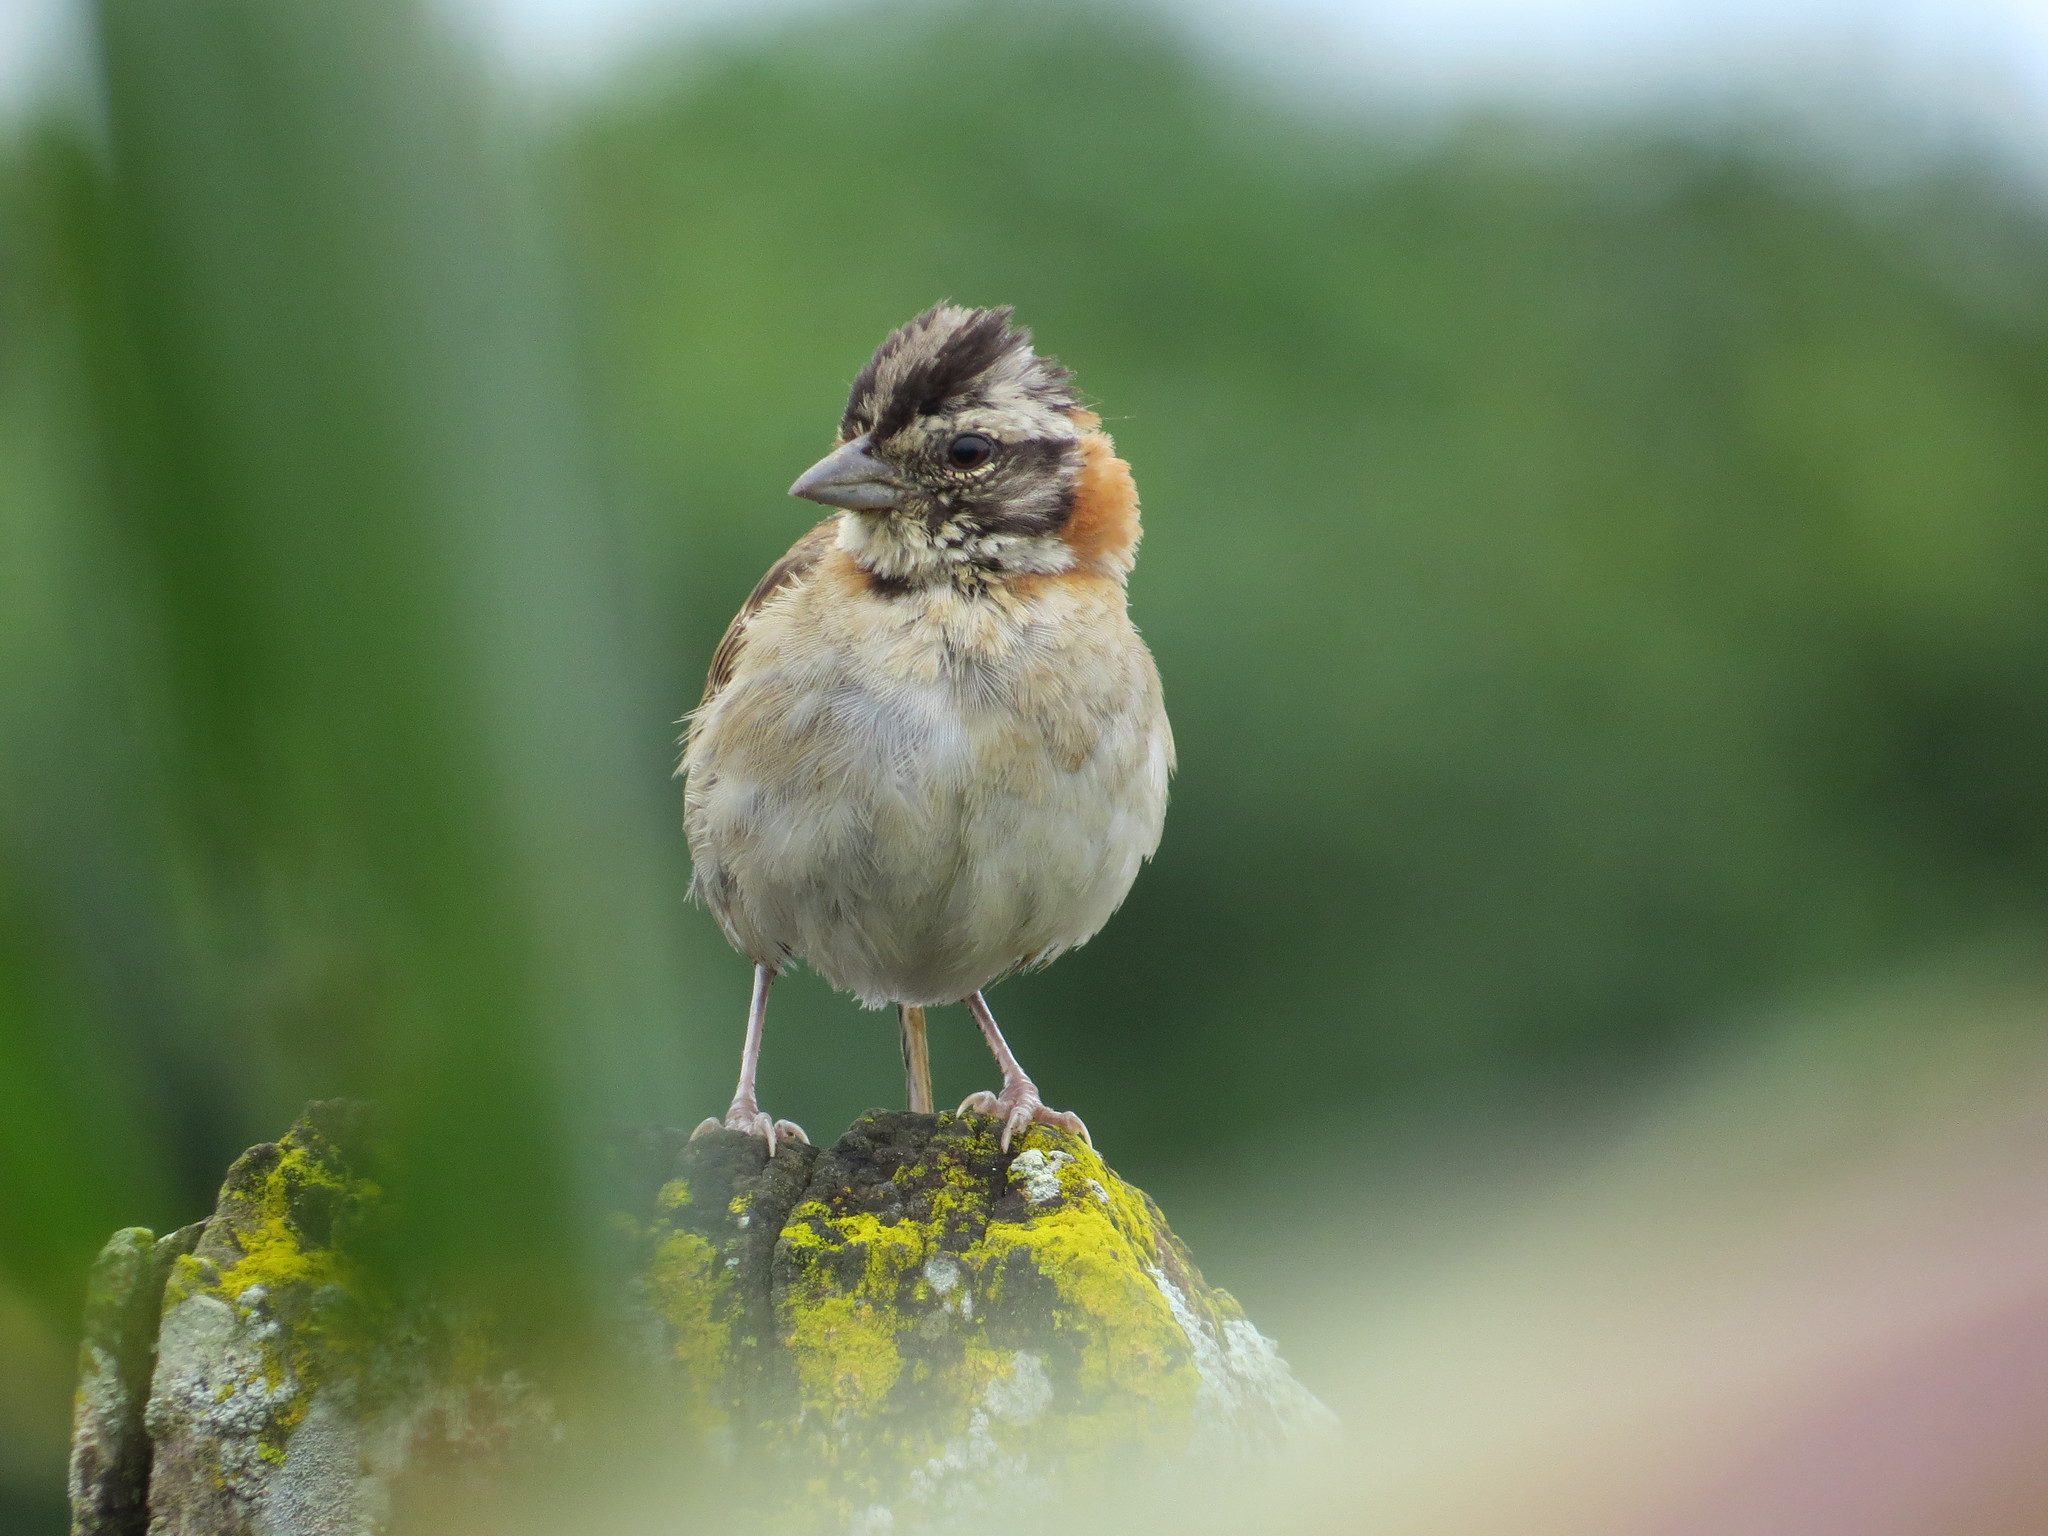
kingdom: Animalia
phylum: Chordata
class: Aves
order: Passeriformes
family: Passerellidae
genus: Zonotrichia
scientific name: Zonotrichia capensis
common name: Rufous-collared sparrow
